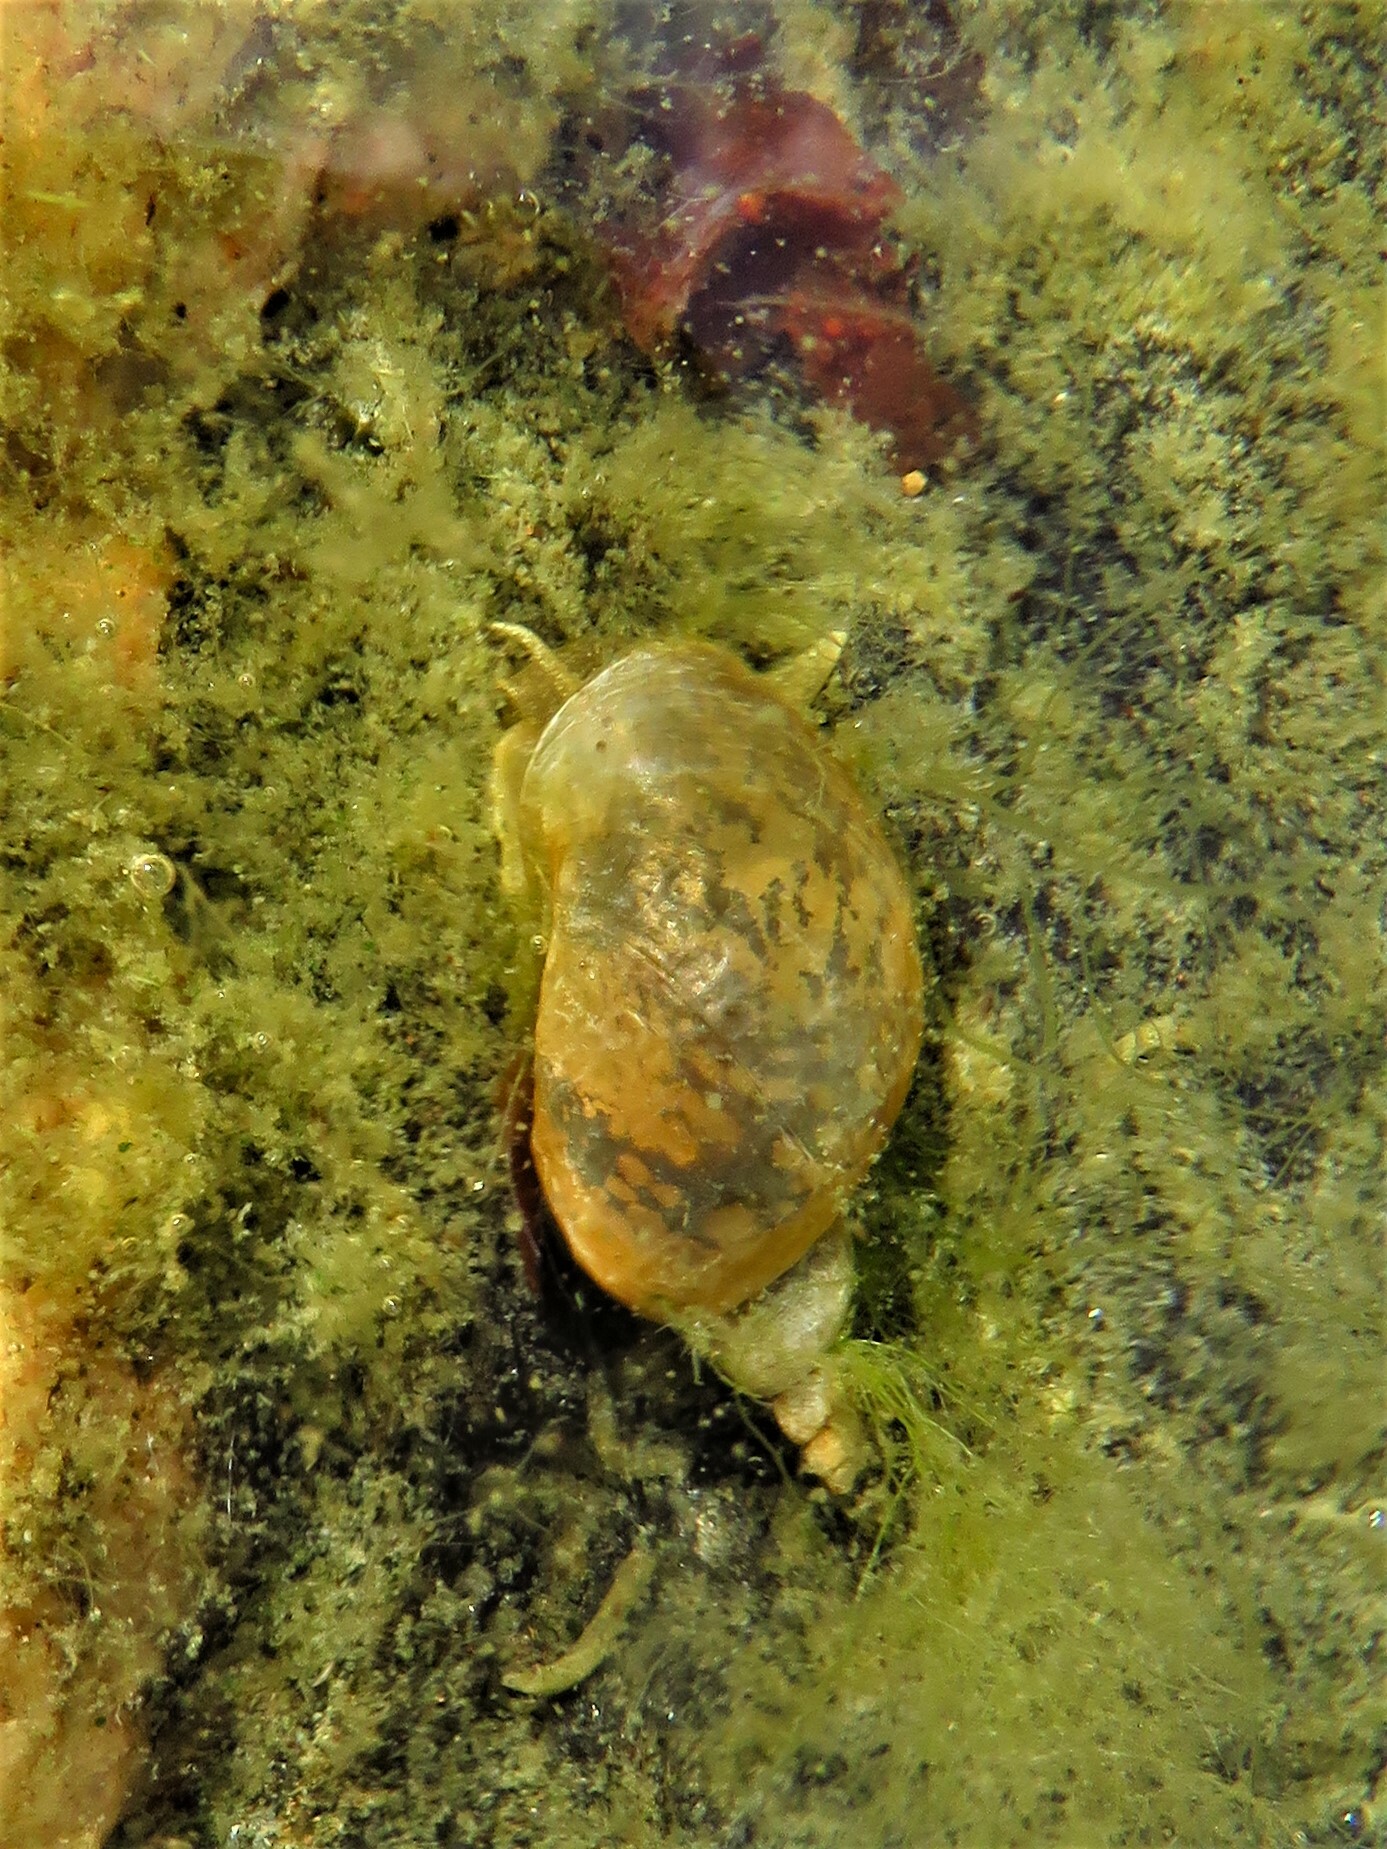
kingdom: Animalia
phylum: Mollusca
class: Gastropoda
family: Lymnaeidae
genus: Lymnaea
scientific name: Lymnaea stagnalis
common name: Great pond snail
